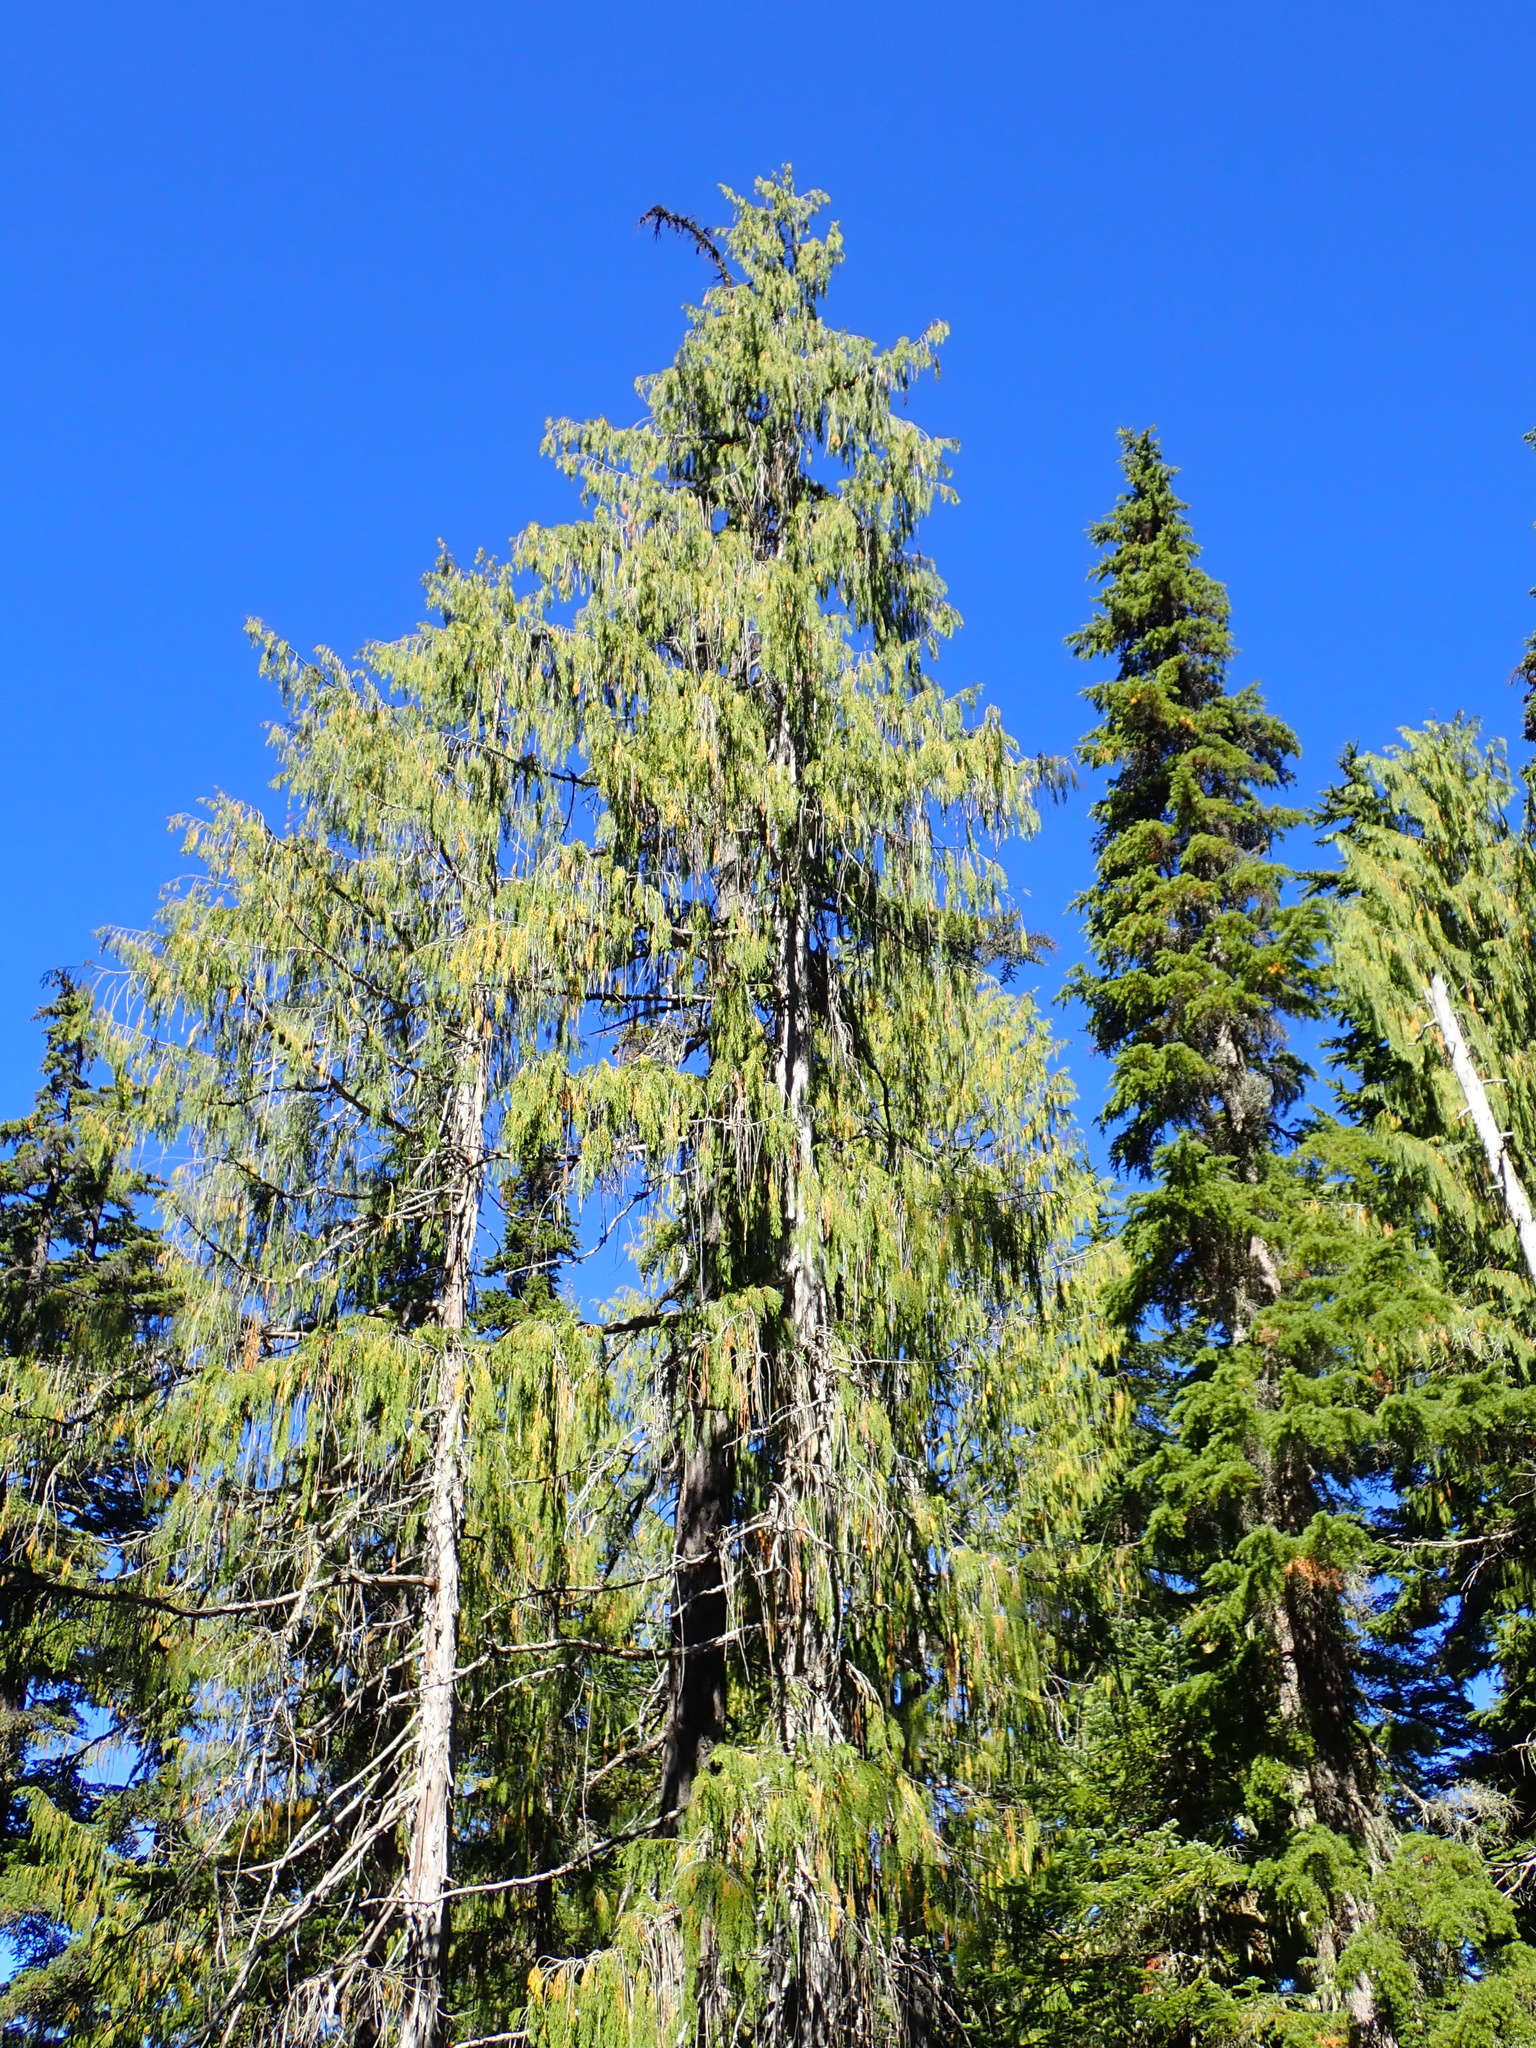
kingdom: Plantae
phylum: Tracheophyta
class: Pinopsida
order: Pinales
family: Cupressaceae
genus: Xanthocyparis
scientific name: Xanthocyparis nootkatensis
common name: Nootka cypress
